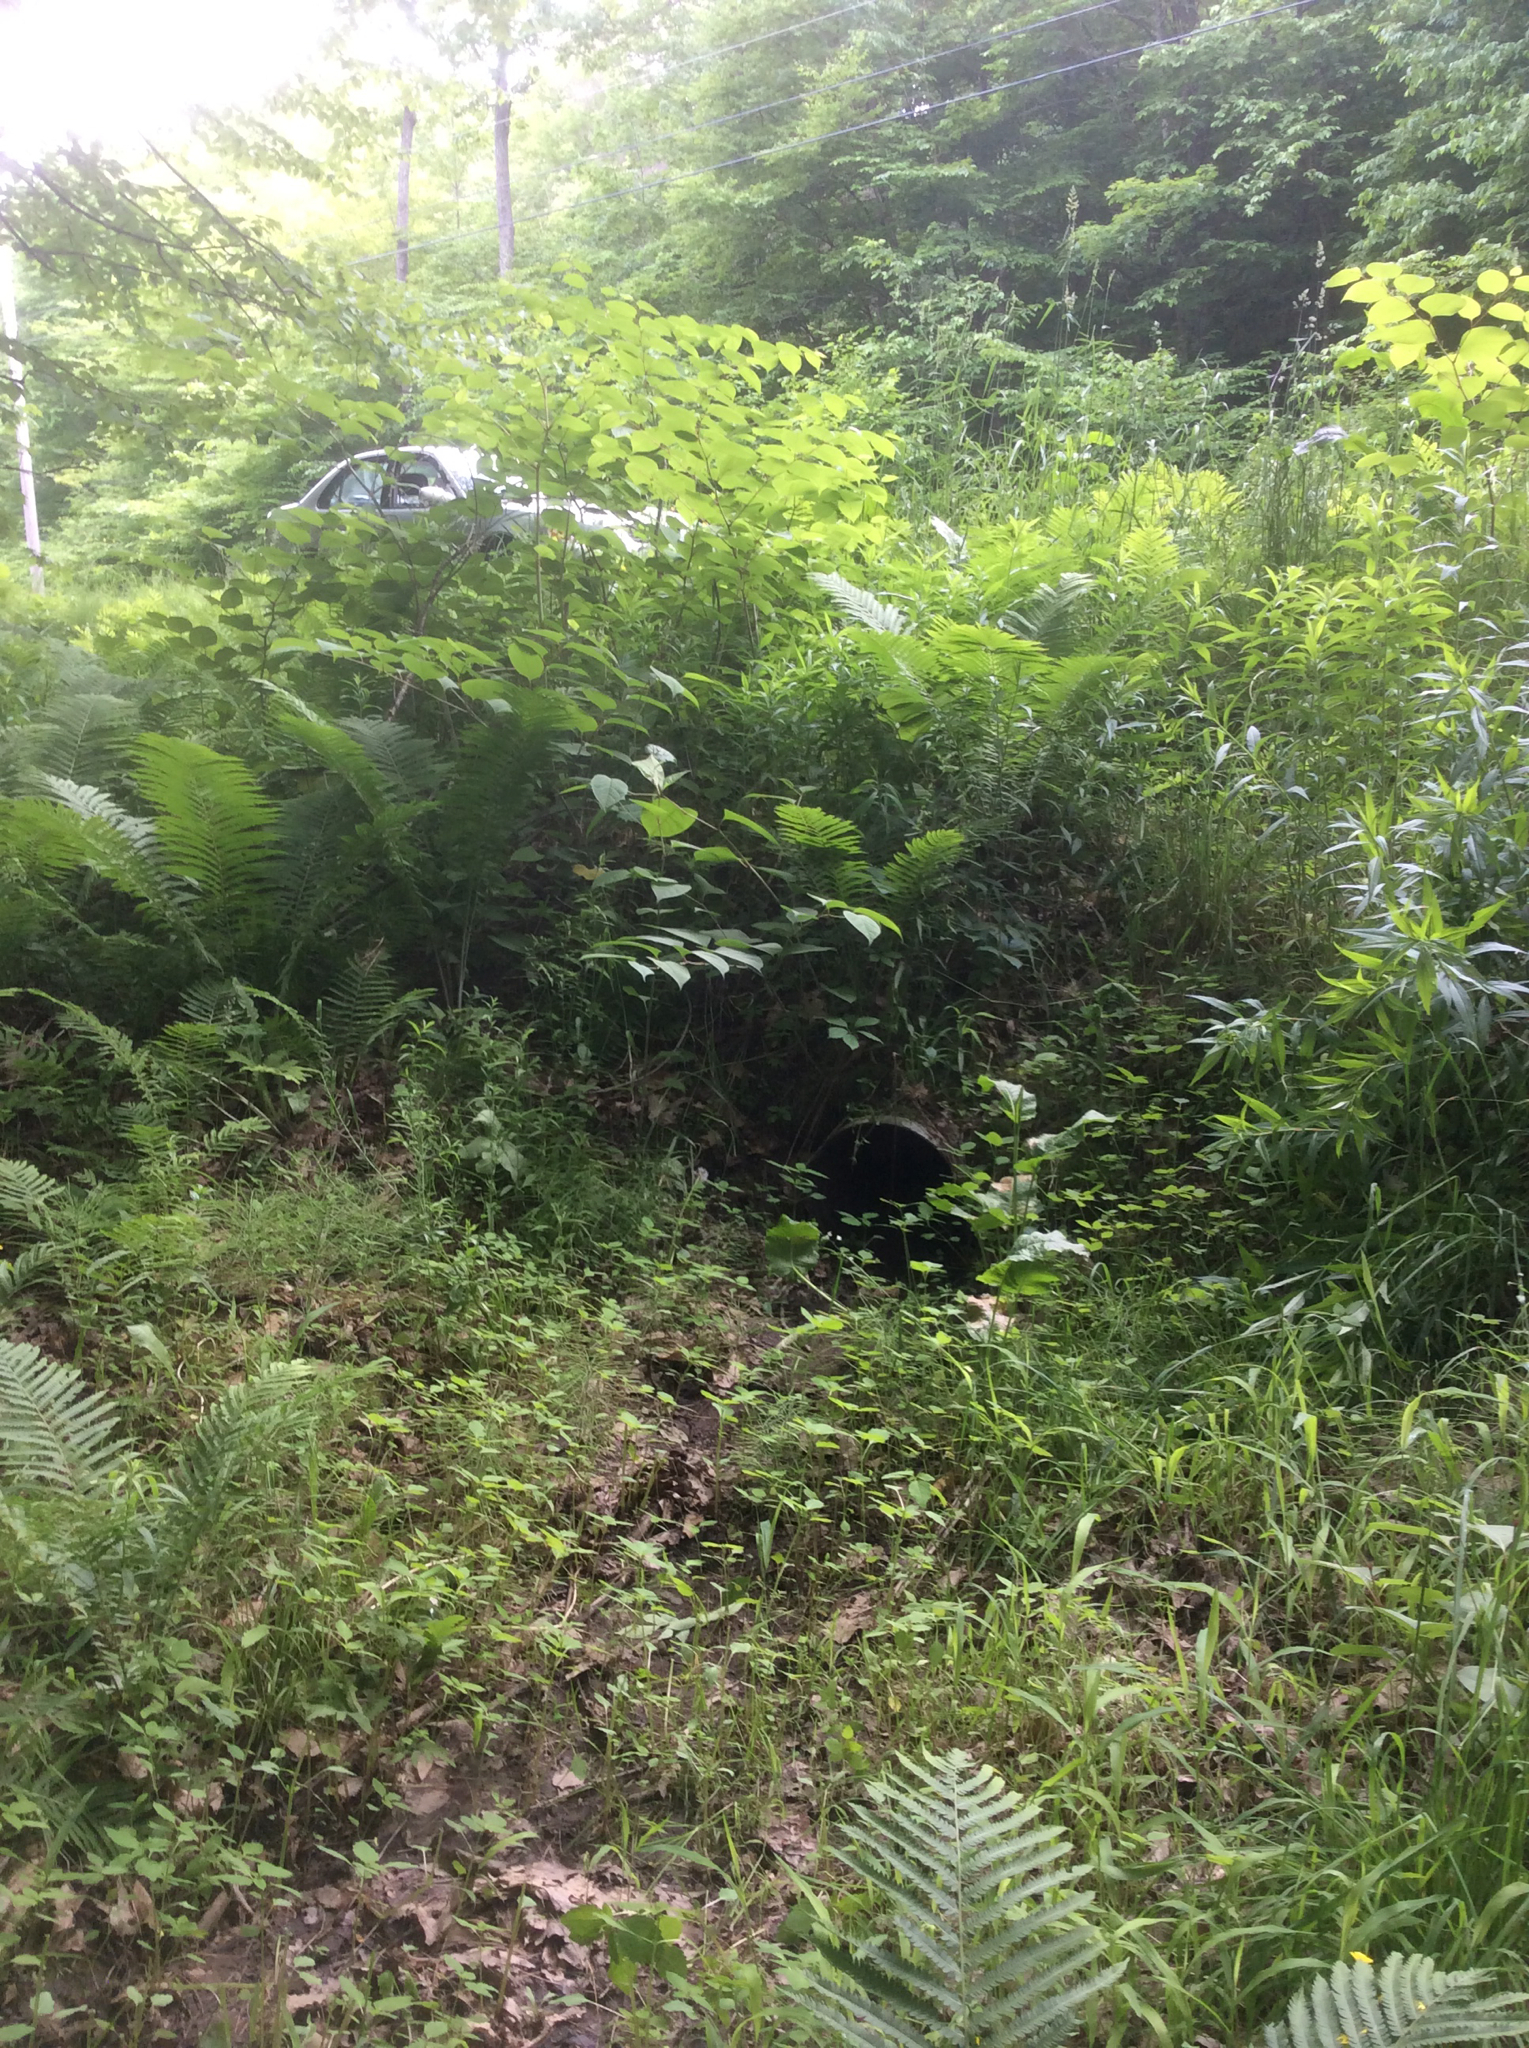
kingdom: Plantae
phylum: Tracheophyta
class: Magnoliopsida
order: Caryophyllales
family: Polygonaceae
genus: Reynoutria
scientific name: Reynoutria japonica
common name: Japanese knotweed
